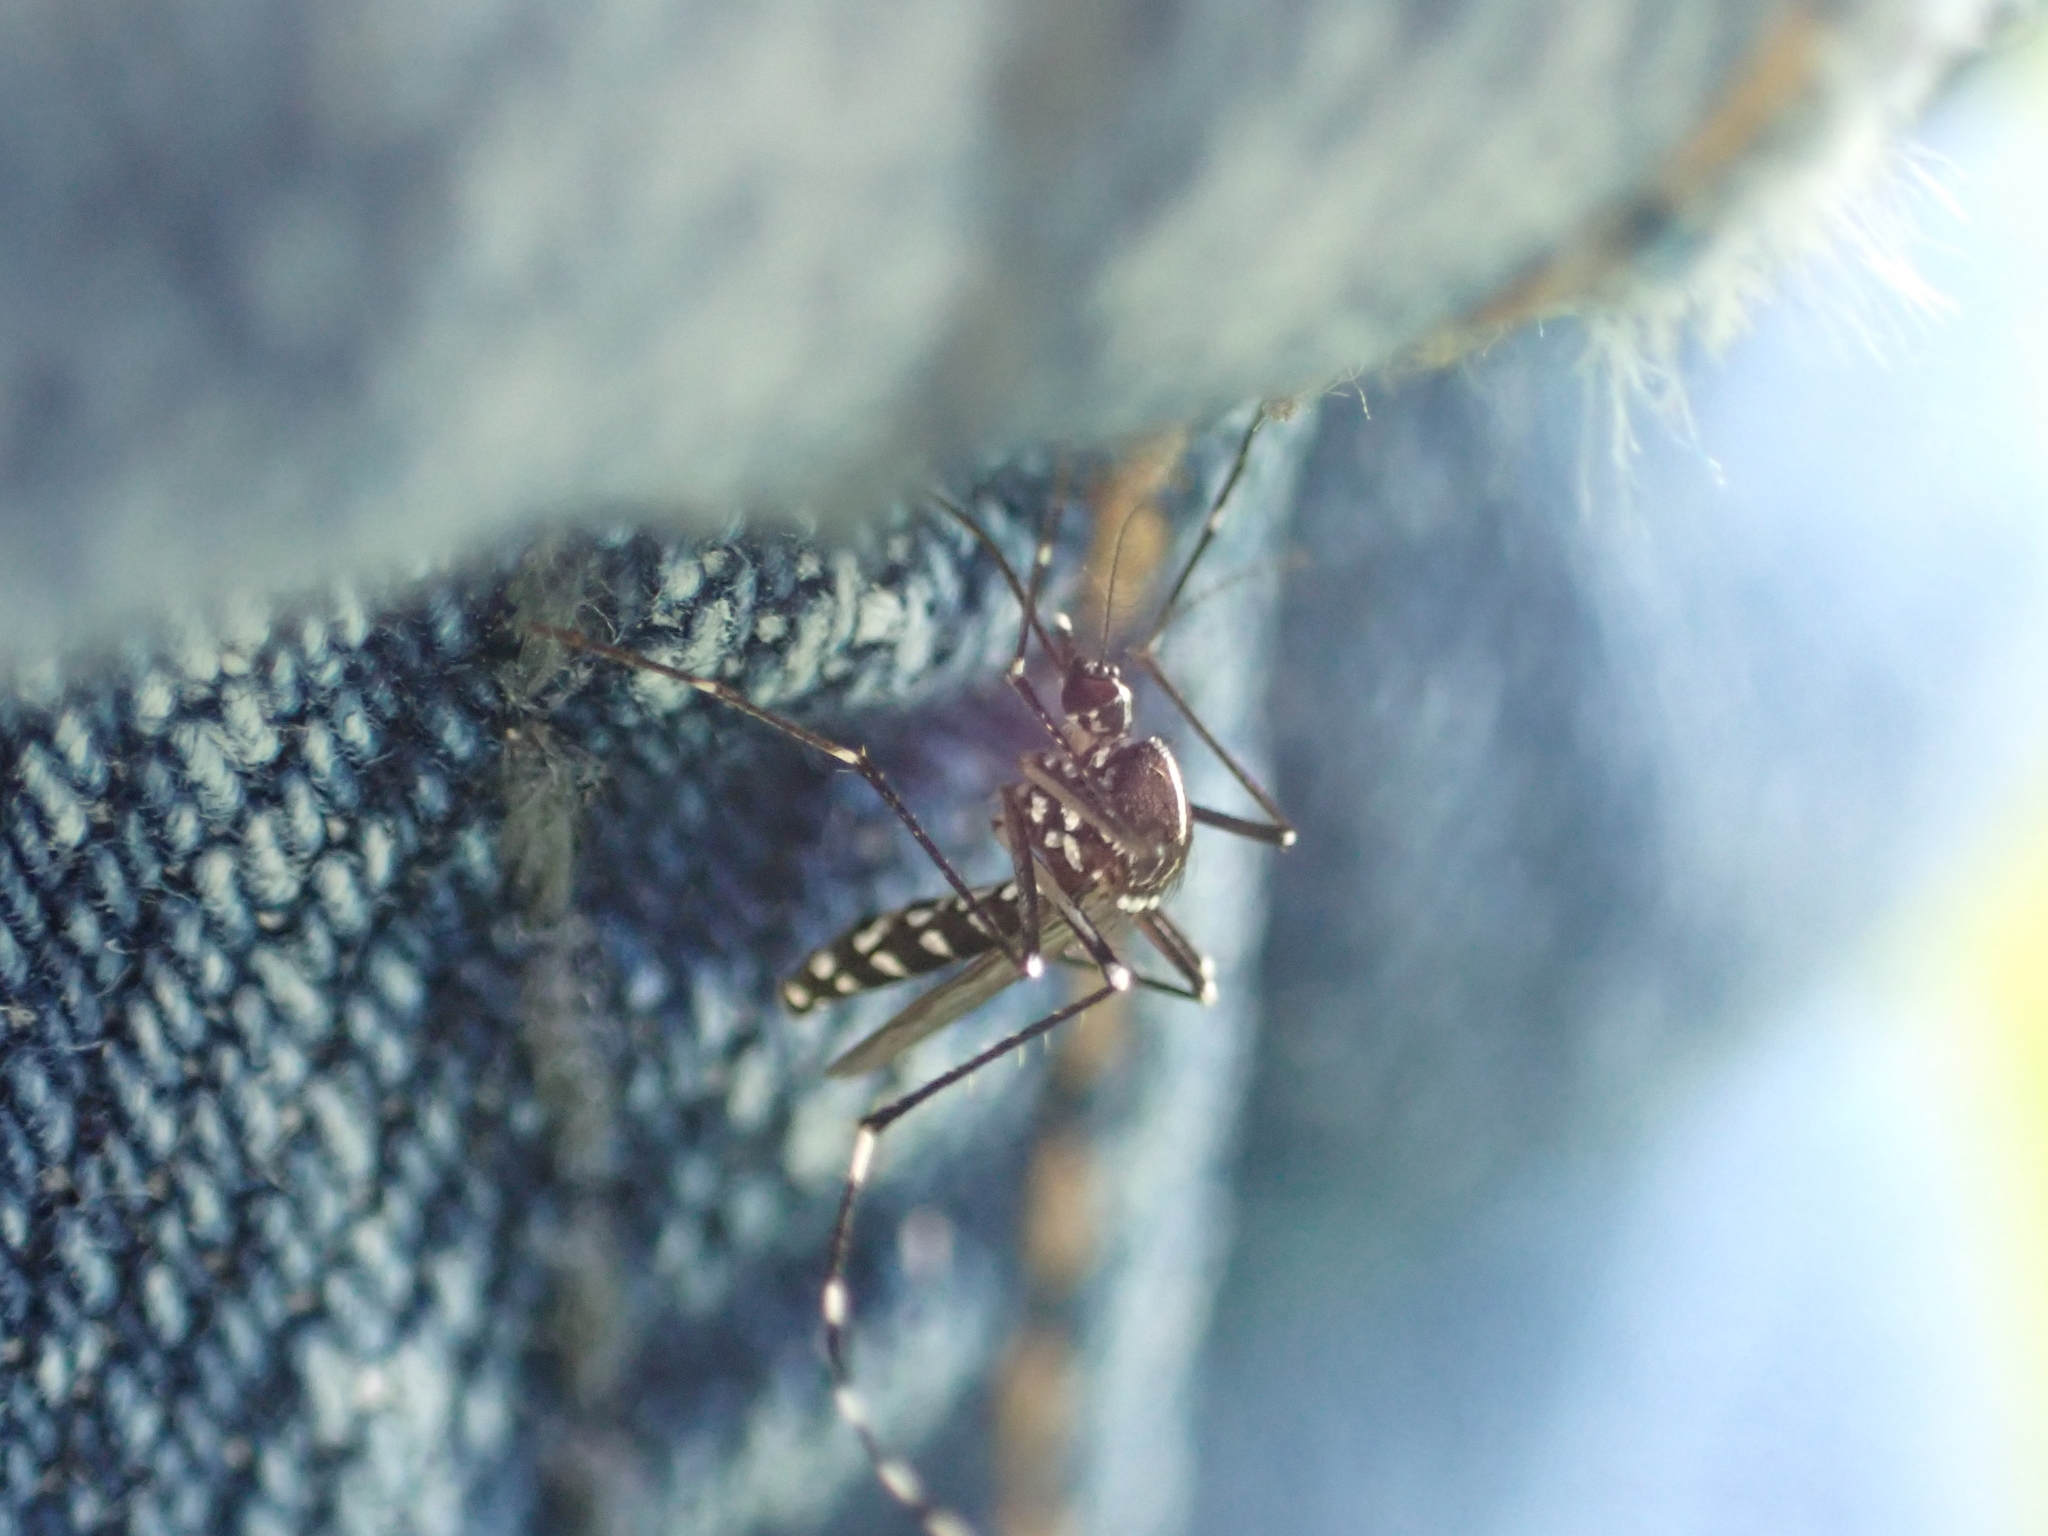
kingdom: Animalia
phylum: Arthropoda
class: Insecta
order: Diptera
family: Culicidae
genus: Aedes
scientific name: Aedes albopictus
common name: Tiger mosquito
